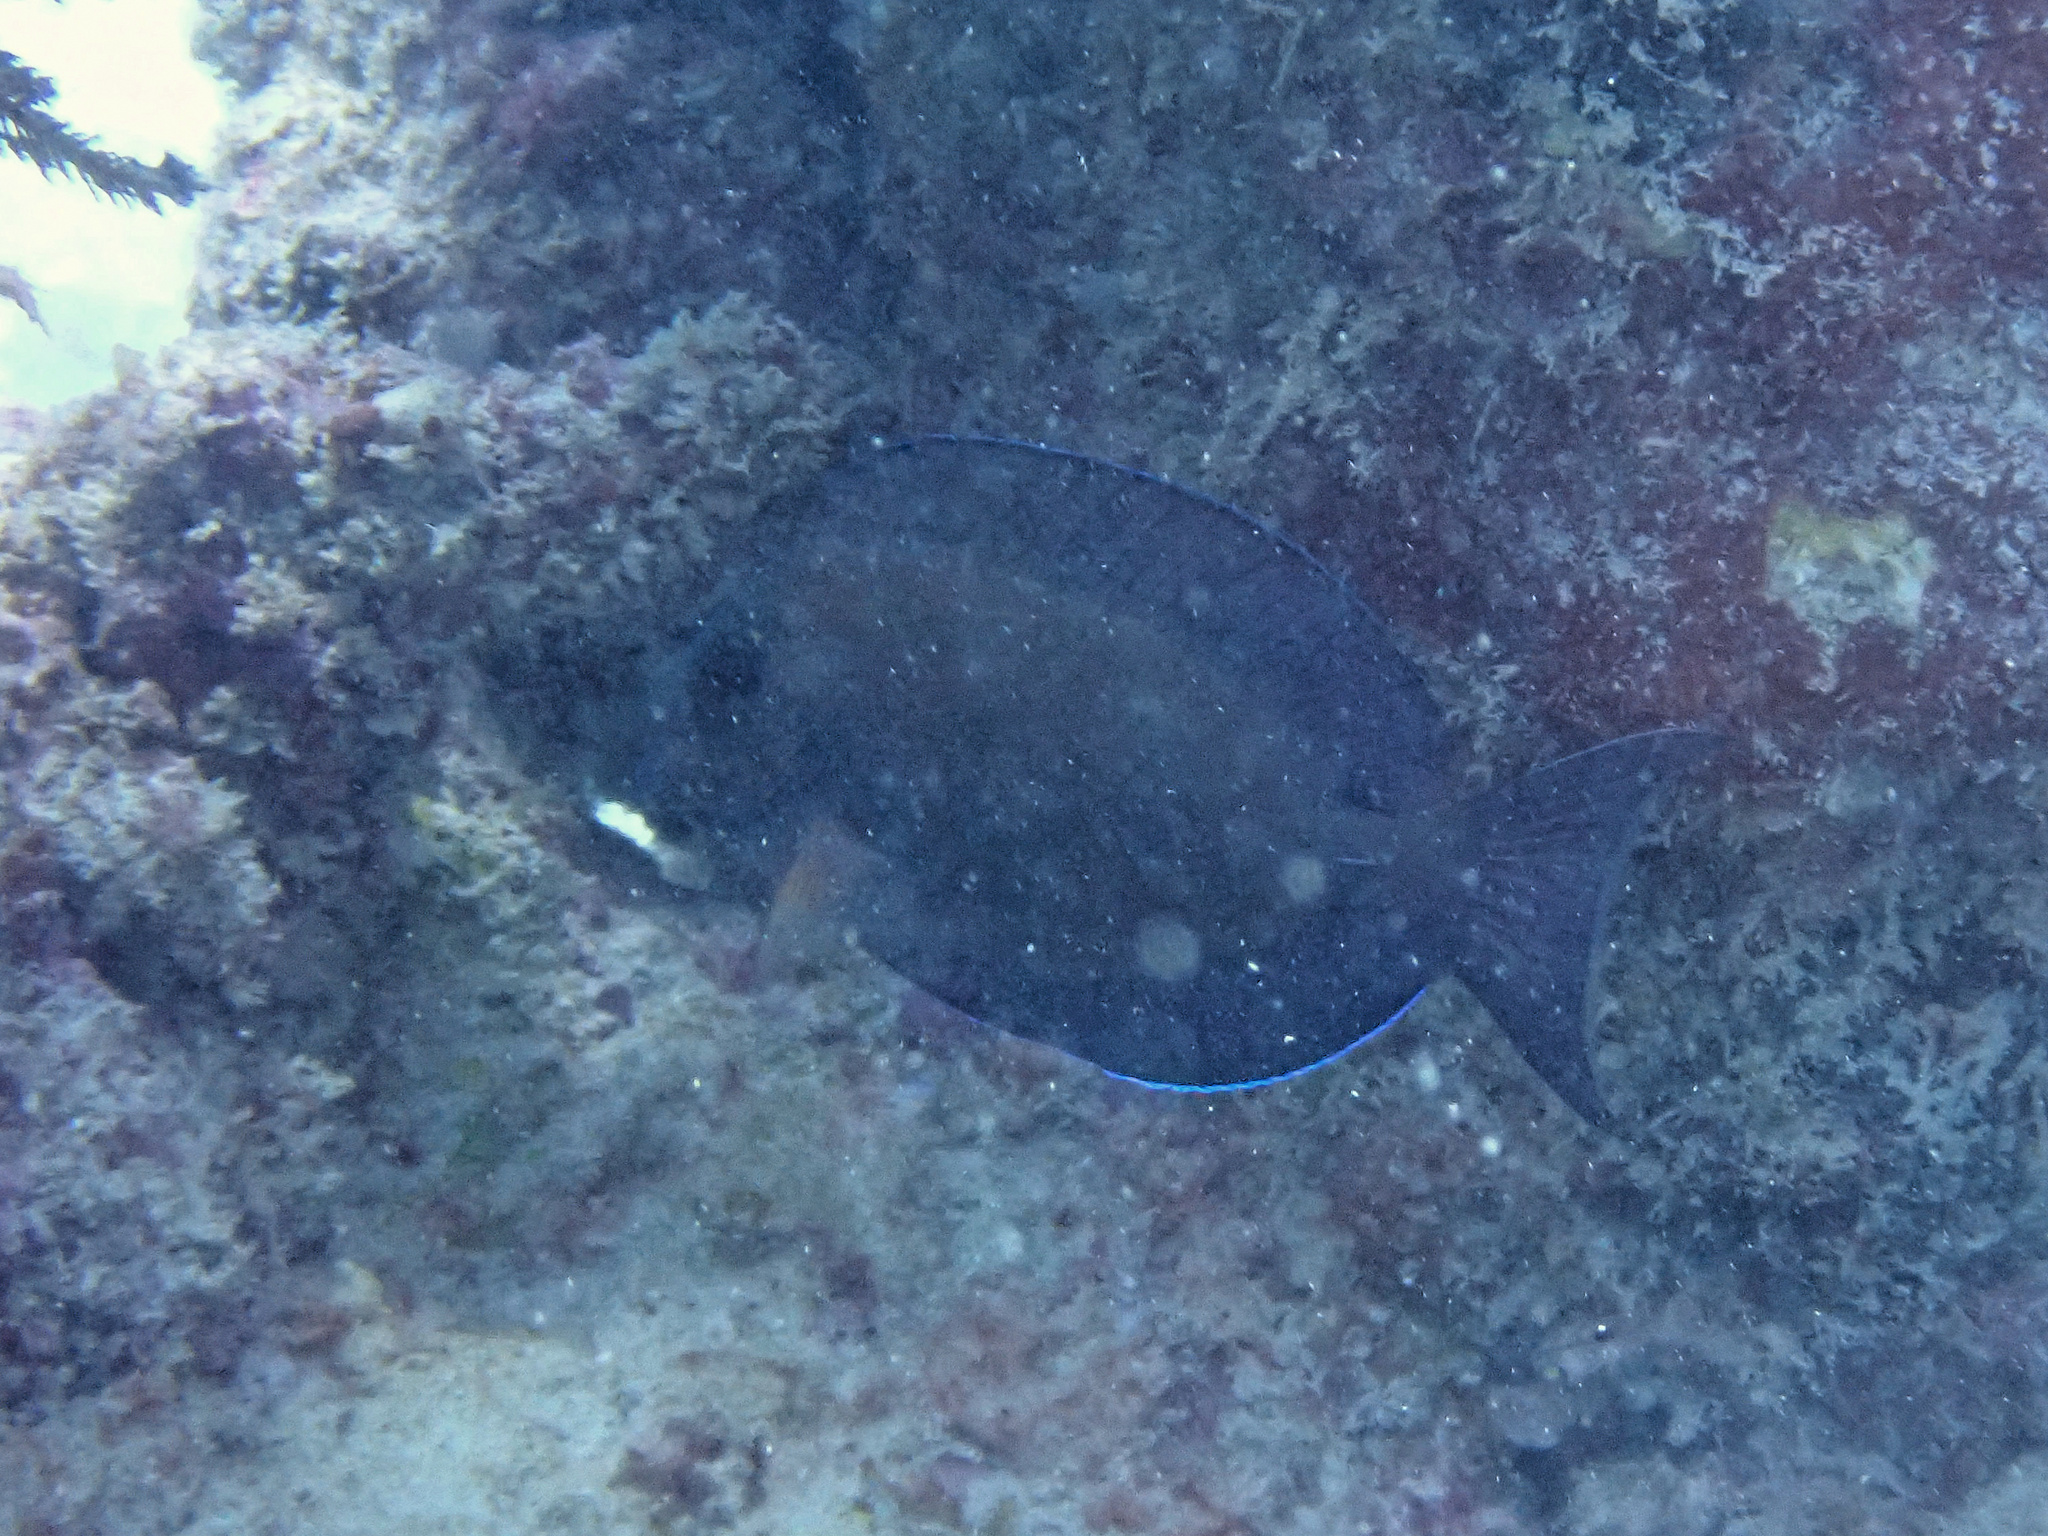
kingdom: Animalia
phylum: Chordata
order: Perciformes
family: Acanthuridae
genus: Acanthurus
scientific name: Acanthurus nigrofuscus
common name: Blackspot surgeonfish
